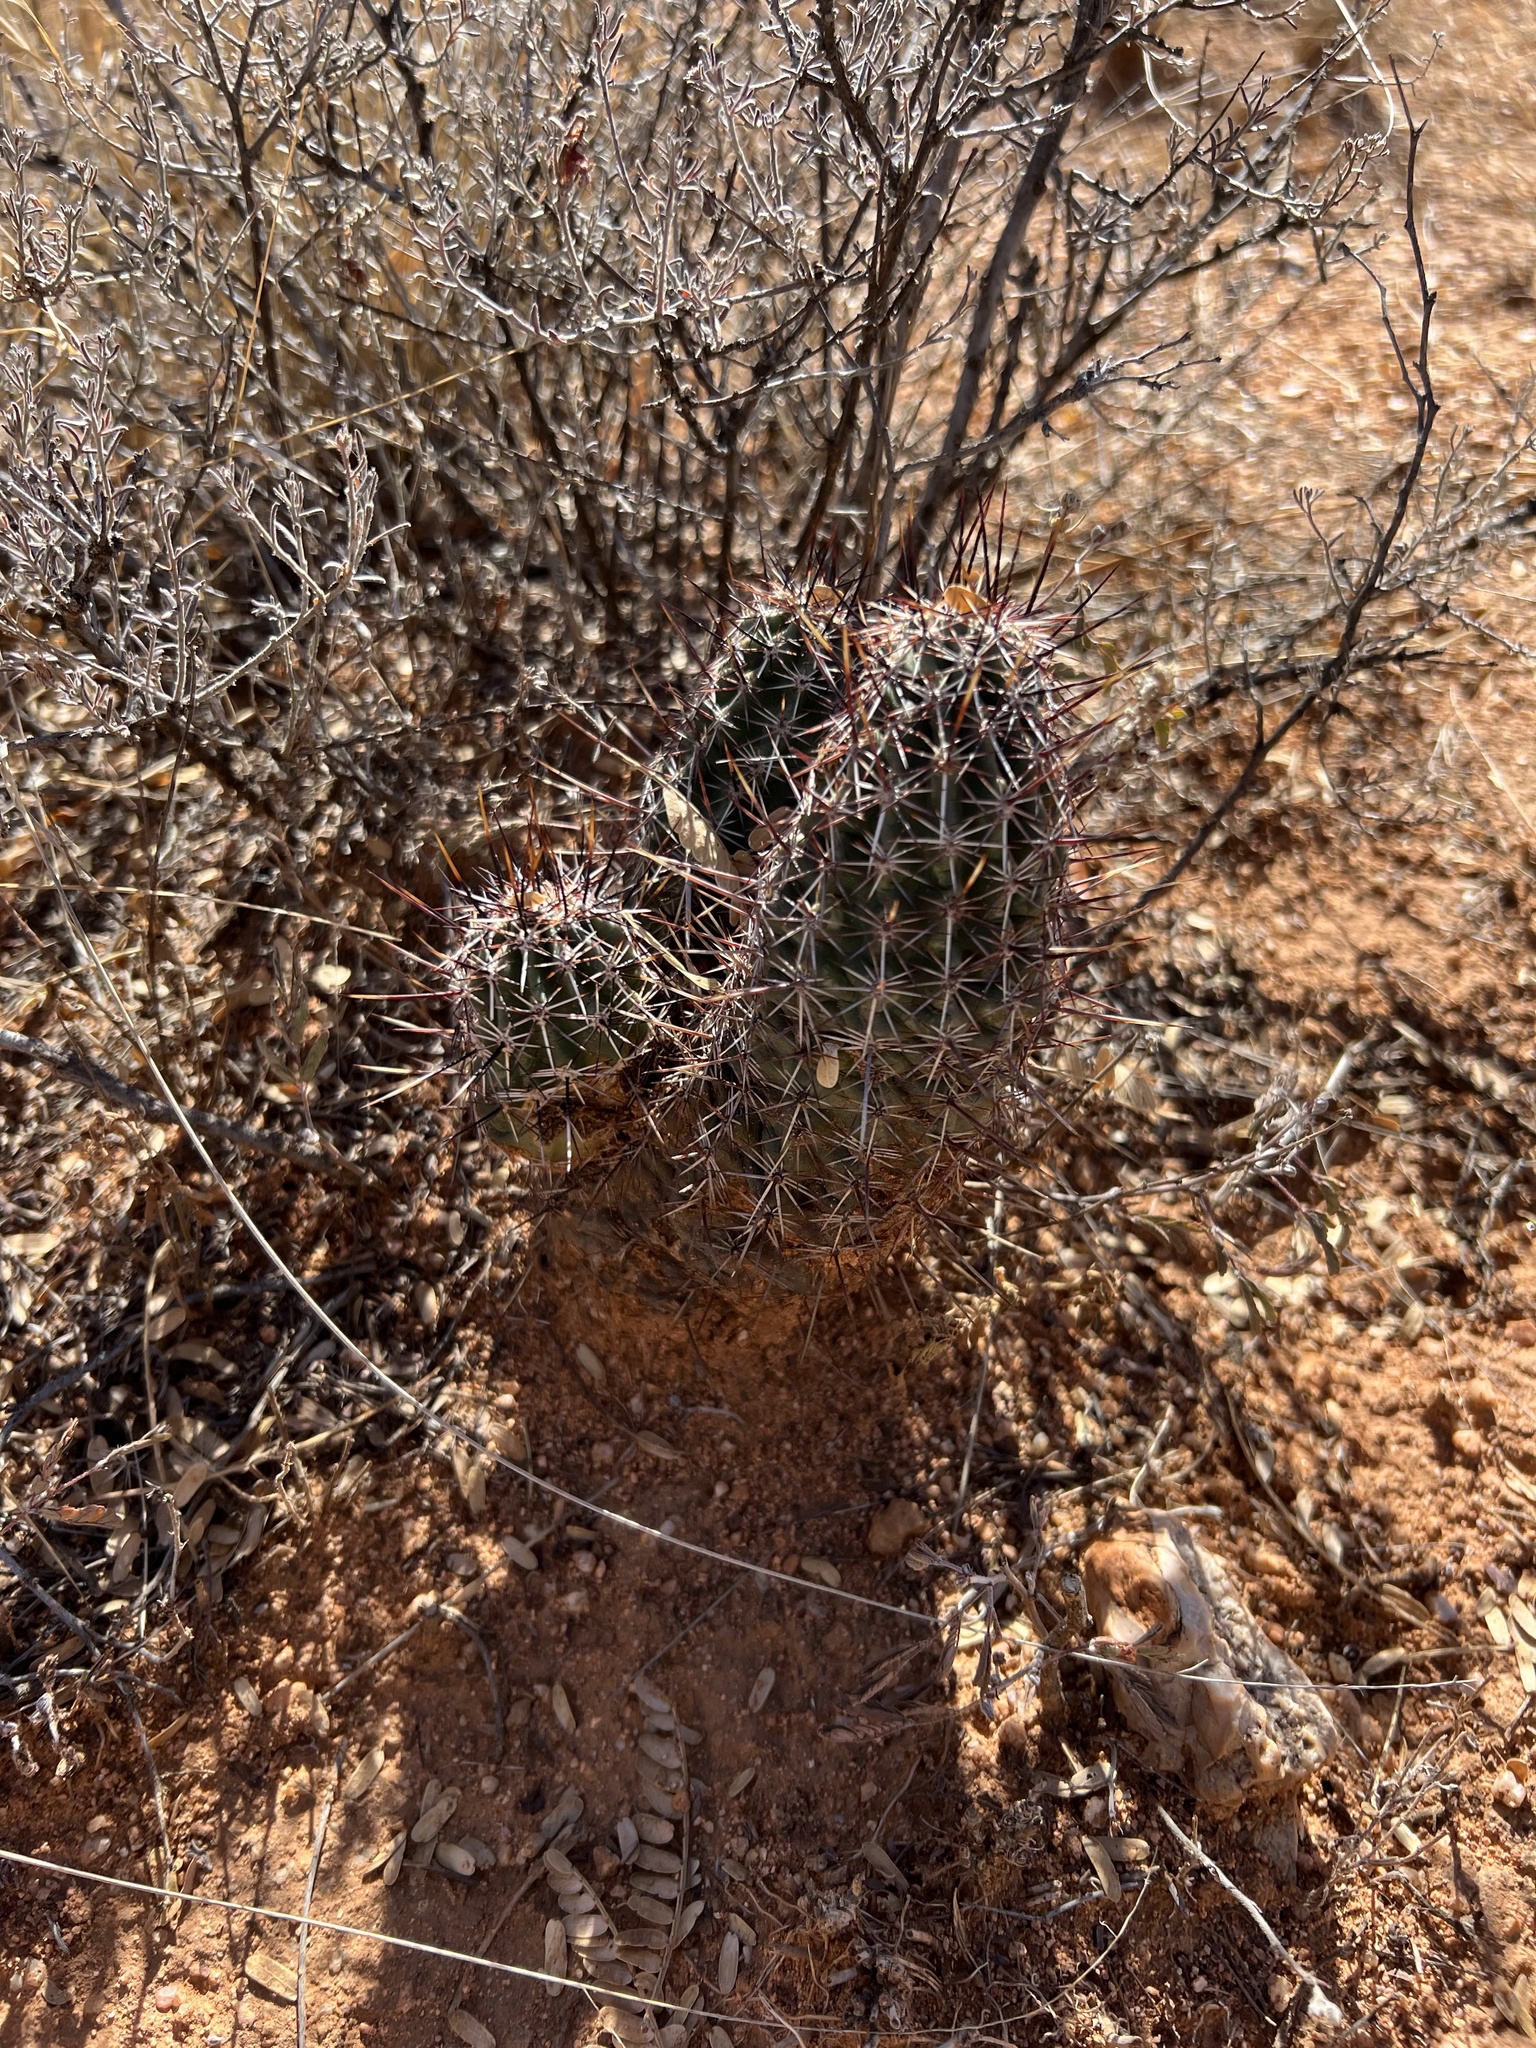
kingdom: Plantae
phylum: Tracheophyta
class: Magnoliopsida
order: Caryophyllales
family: Cactaceae
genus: Echinocereus
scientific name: Echinocereus fasciculatus
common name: Bundle hedgehog
